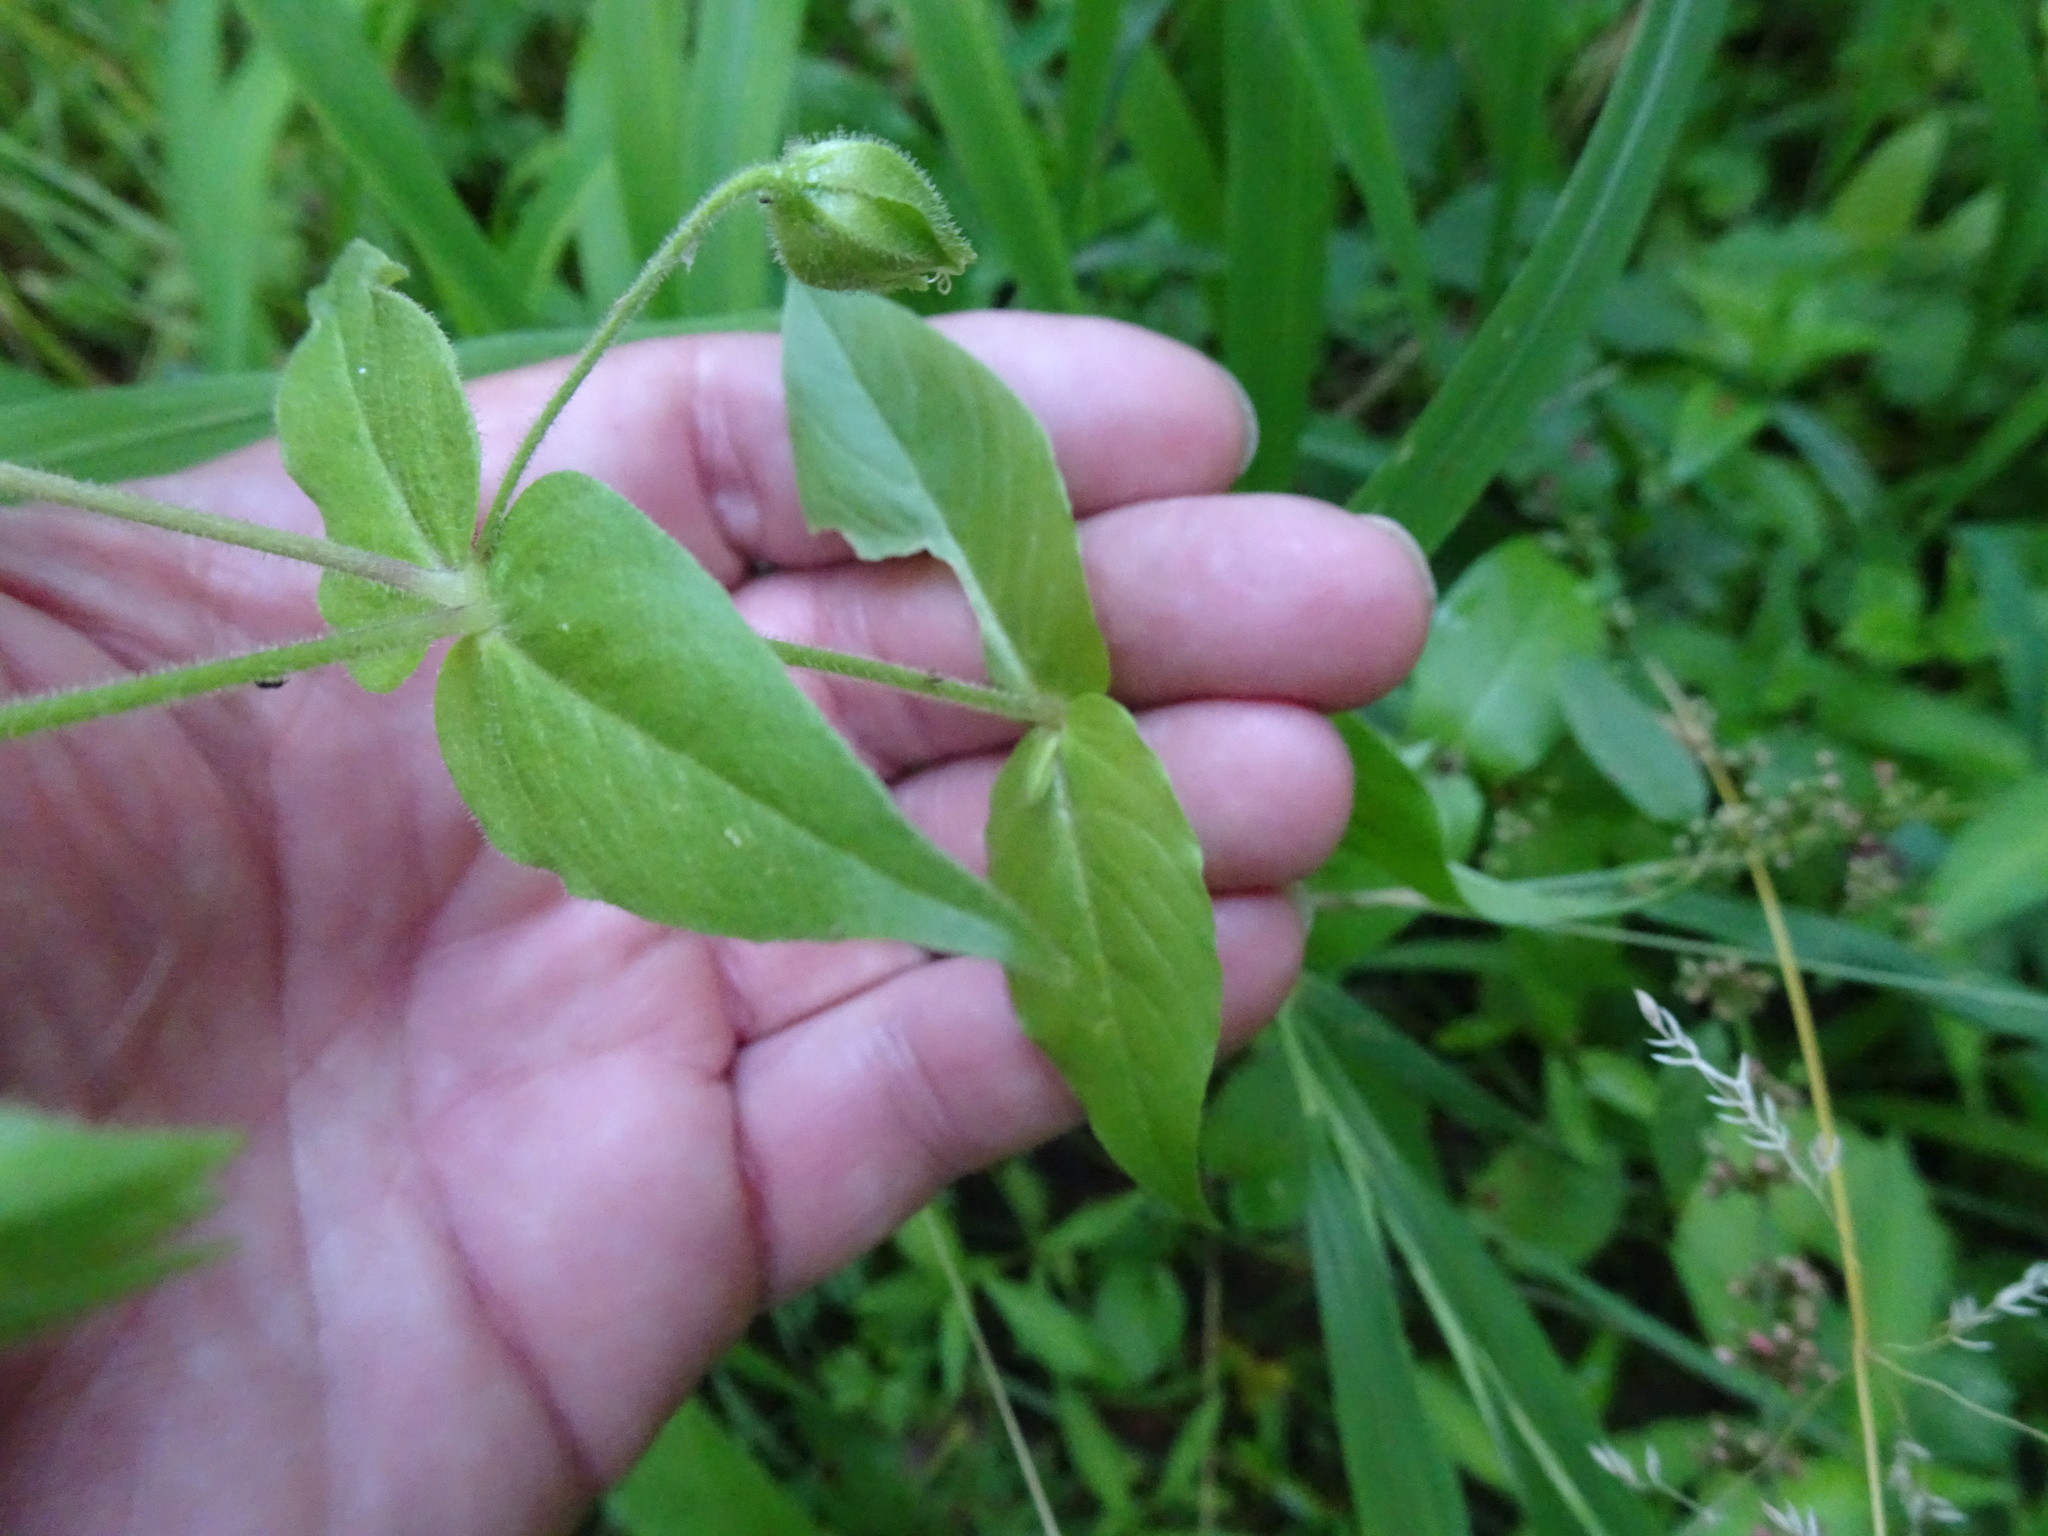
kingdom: Plantae
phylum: Tracheophyta
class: Magnoliopsida
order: Caryophyllales
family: Caryophyllaceae
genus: Stellaria
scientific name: Stellaria aquatica
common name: Water chickweed
